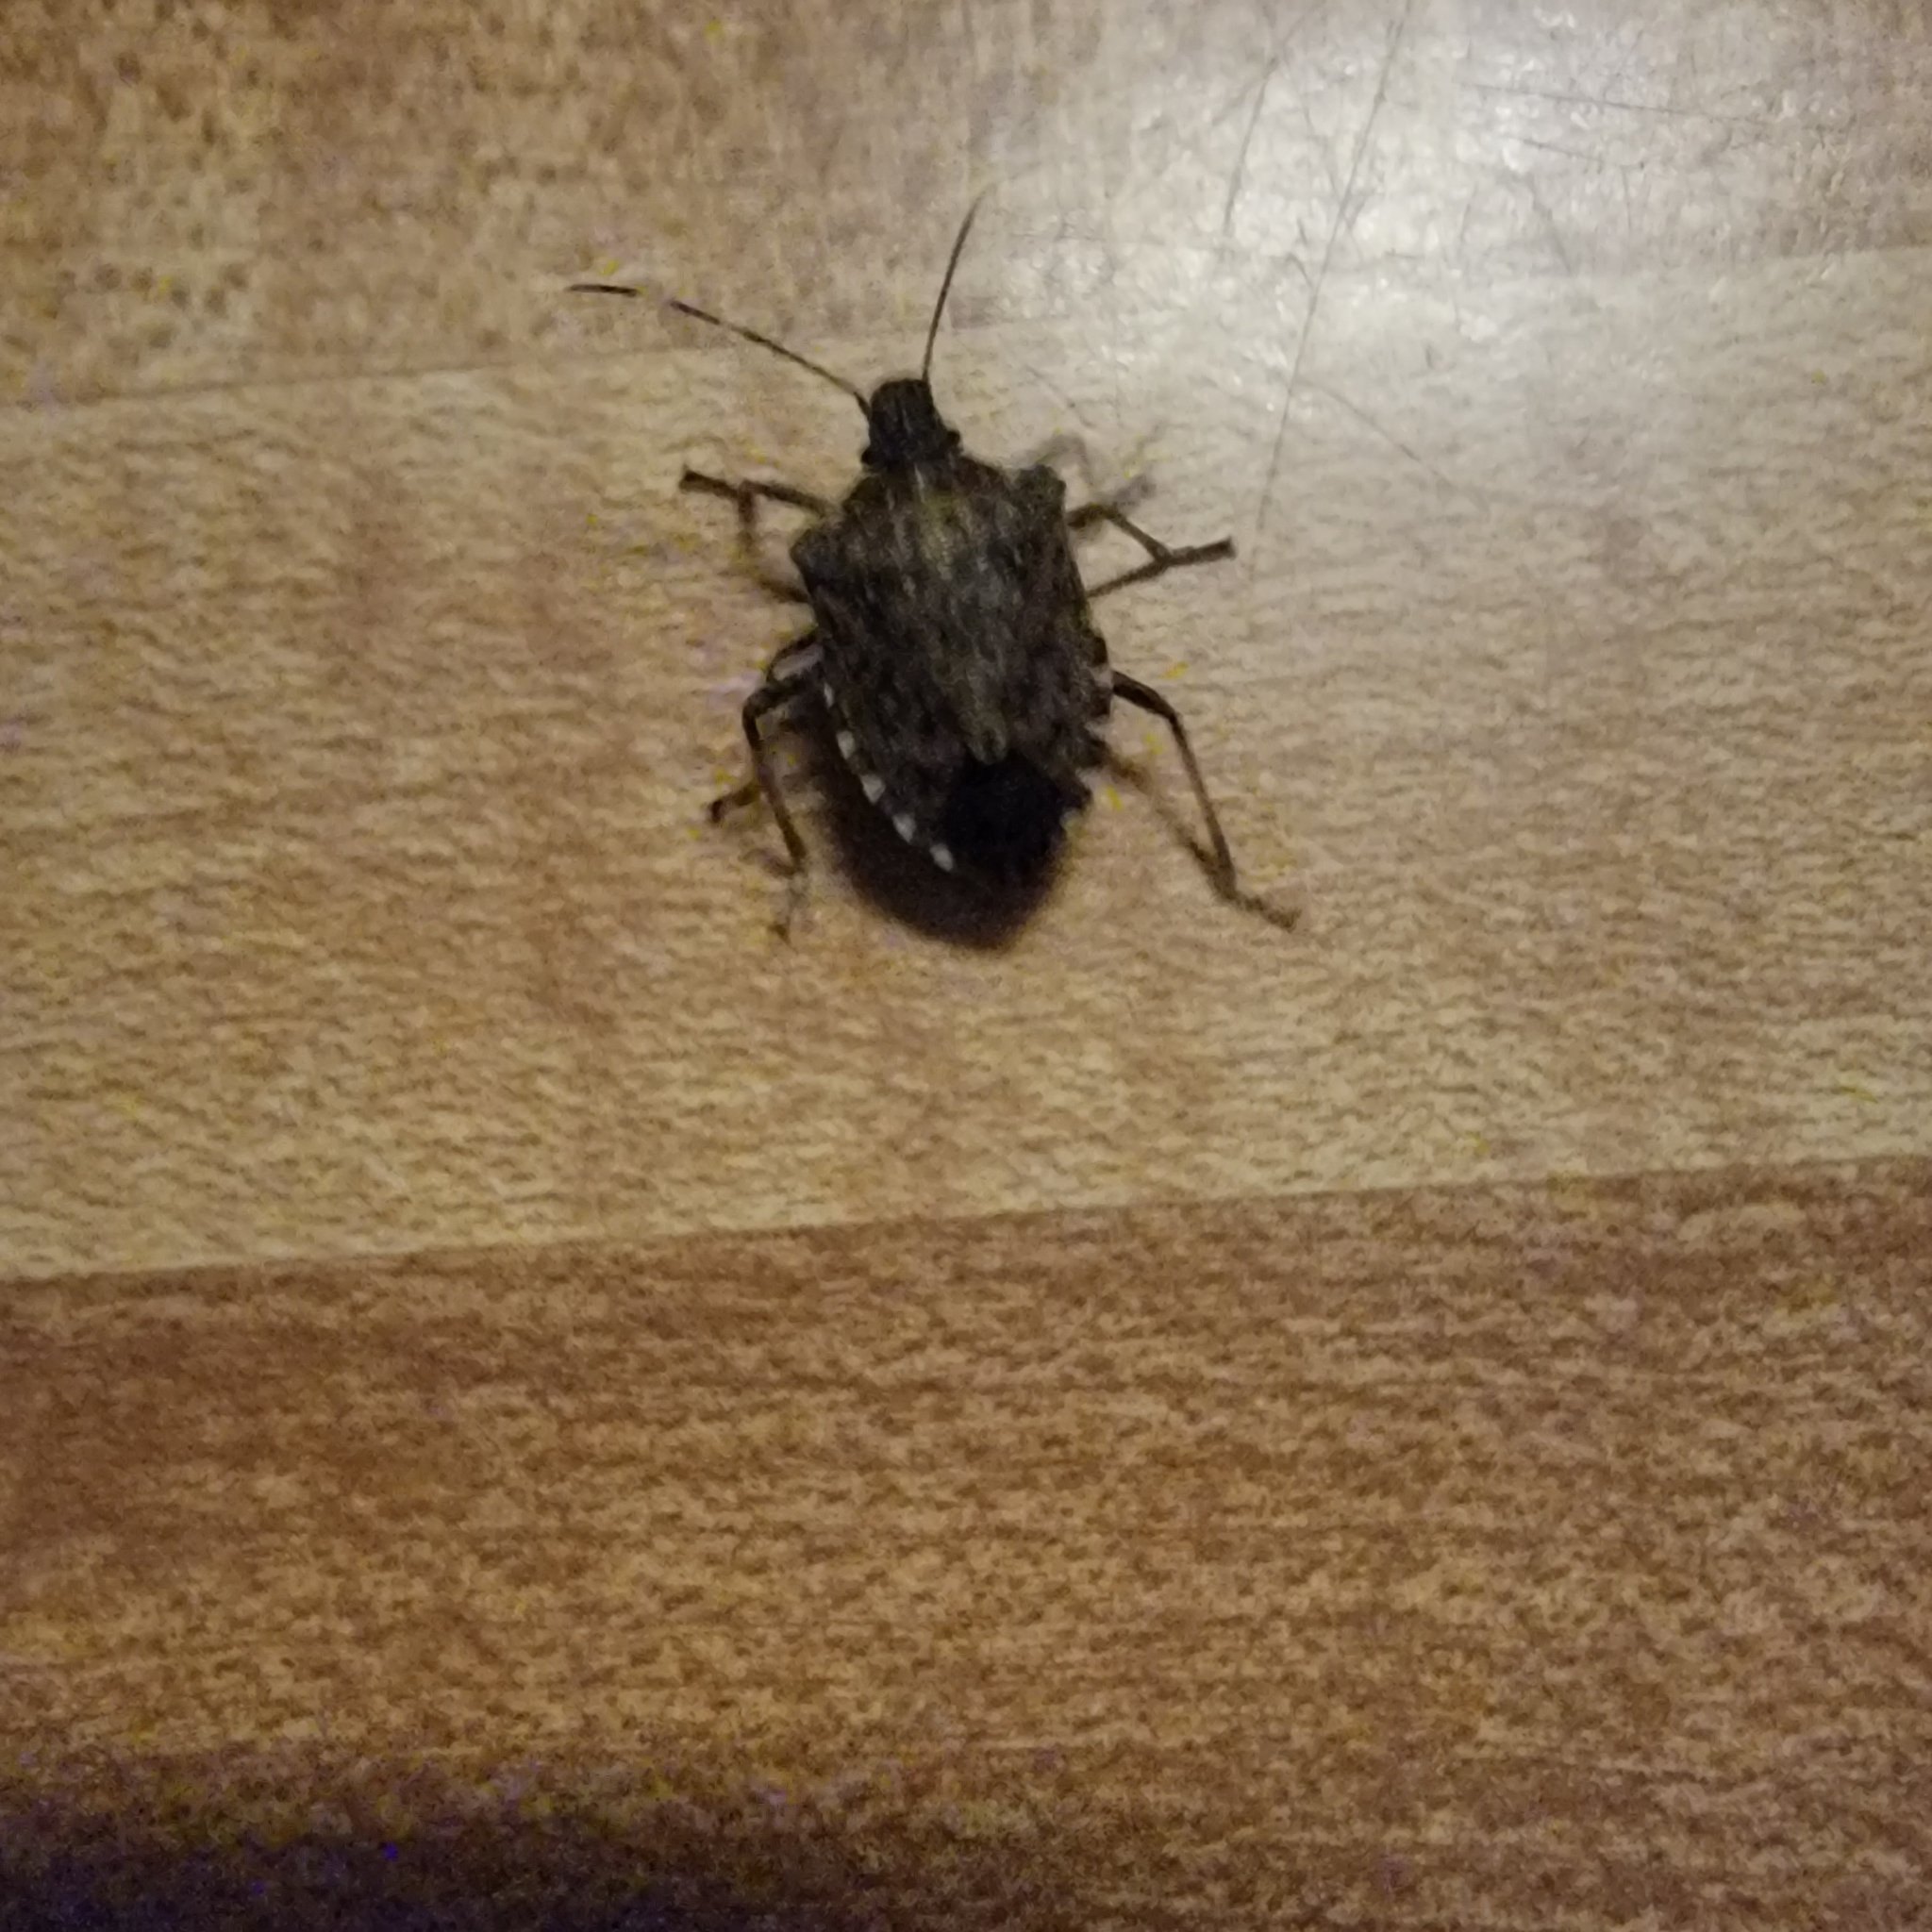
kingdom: Animalia
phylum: Arthropoda
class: Insecta
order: Hemiptera
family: Pentatomidae
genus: Halyomorpha
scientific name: Halyomorpha halys
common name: Brown marmorated stink bug
